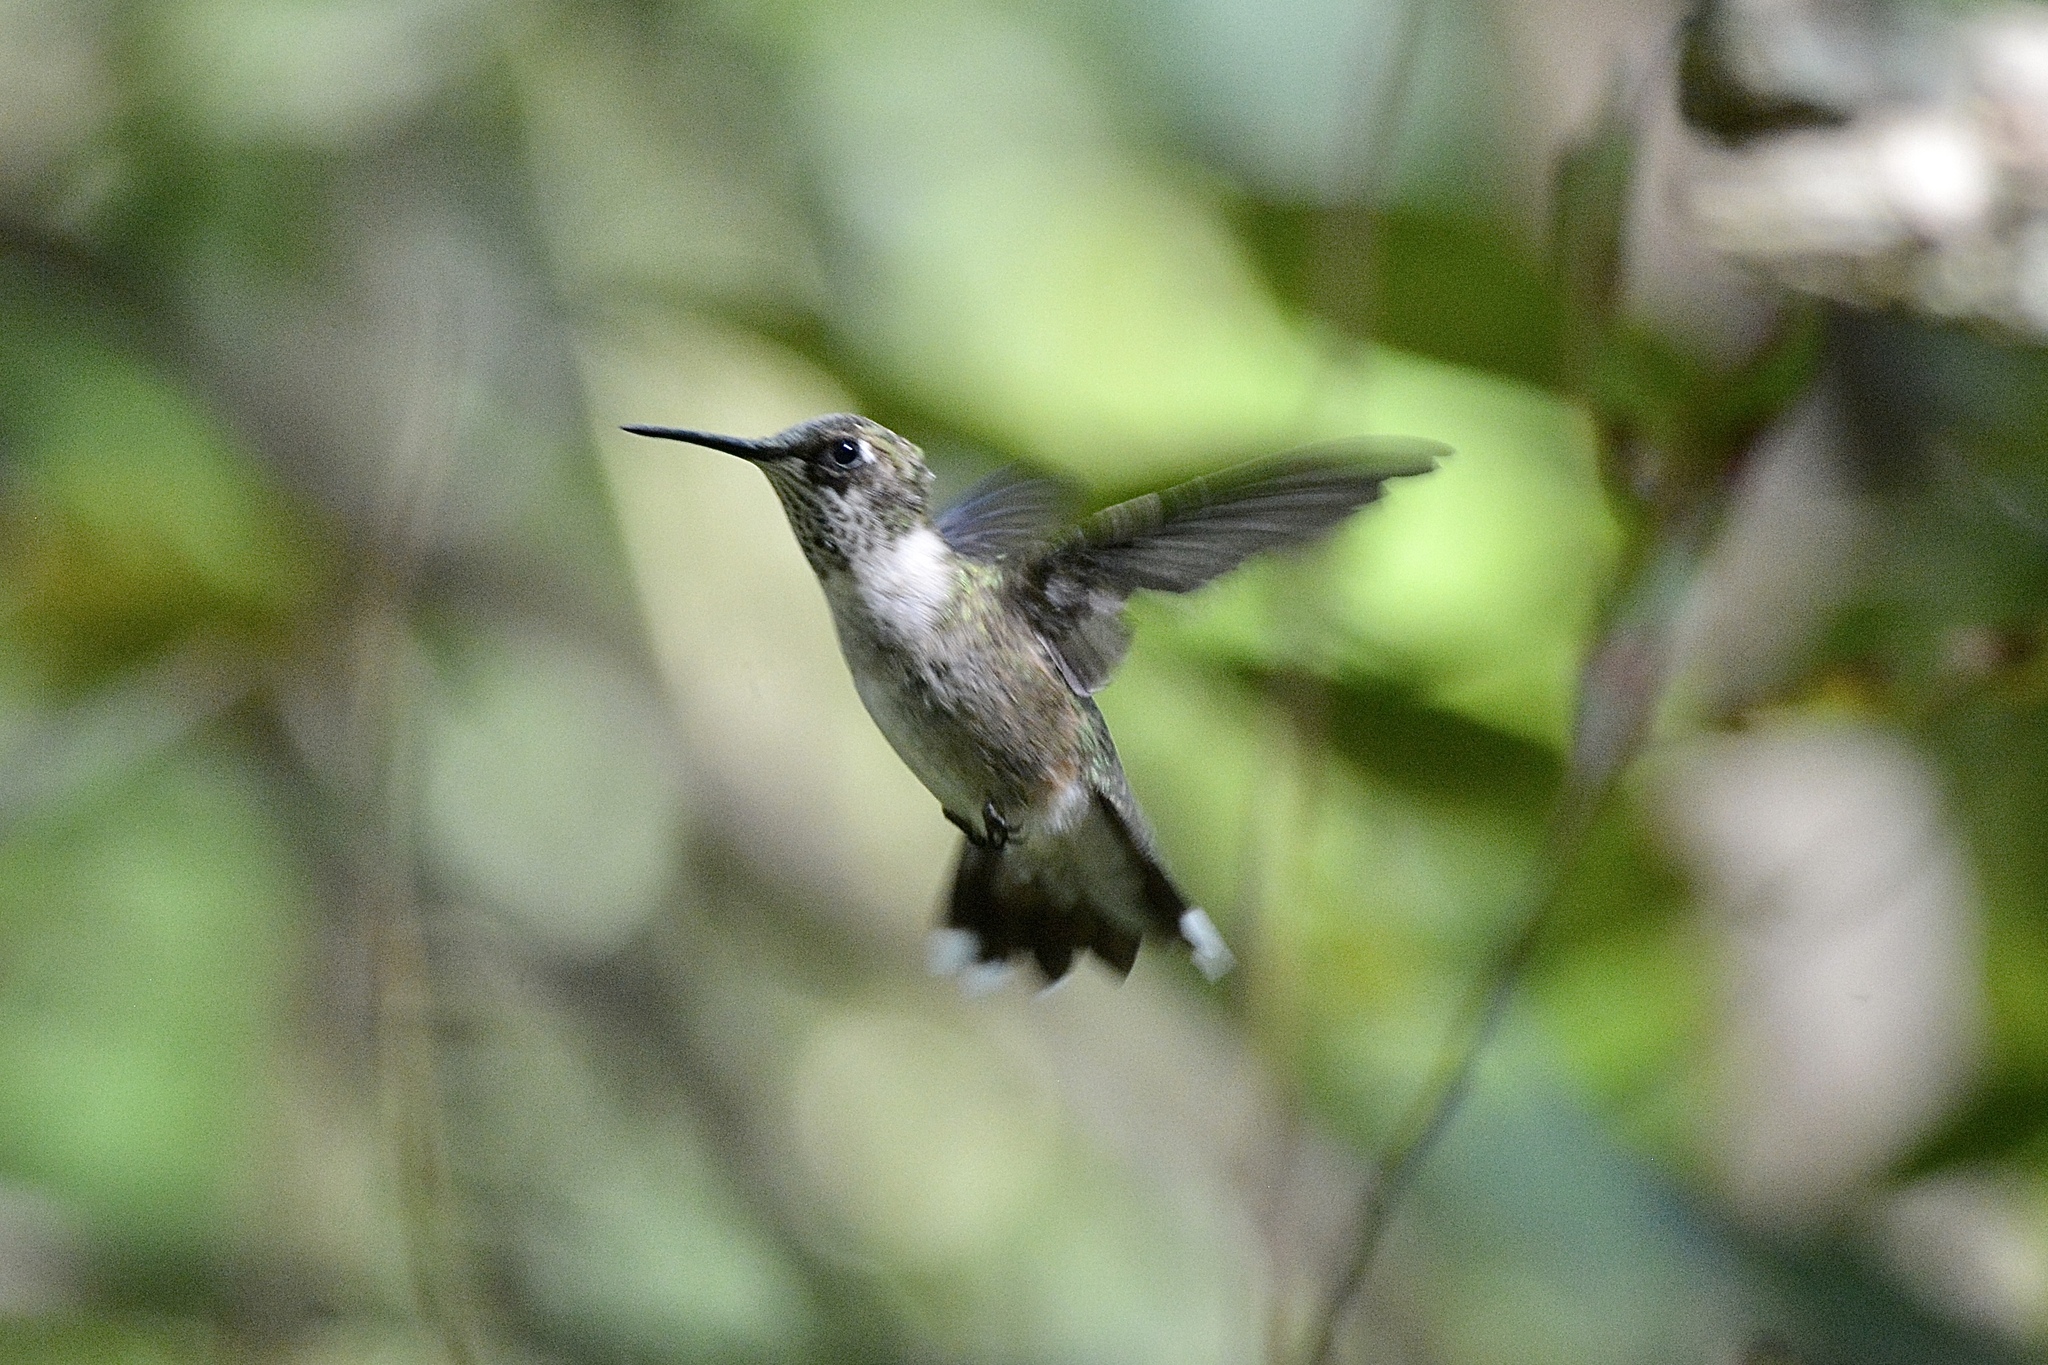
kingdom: Animalia
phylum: Chordata
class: Aves
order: Apodiformes
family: Trochilidae
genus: Archilochus
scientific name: Archilochus colubris
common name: Ruby-throated hummingbird
